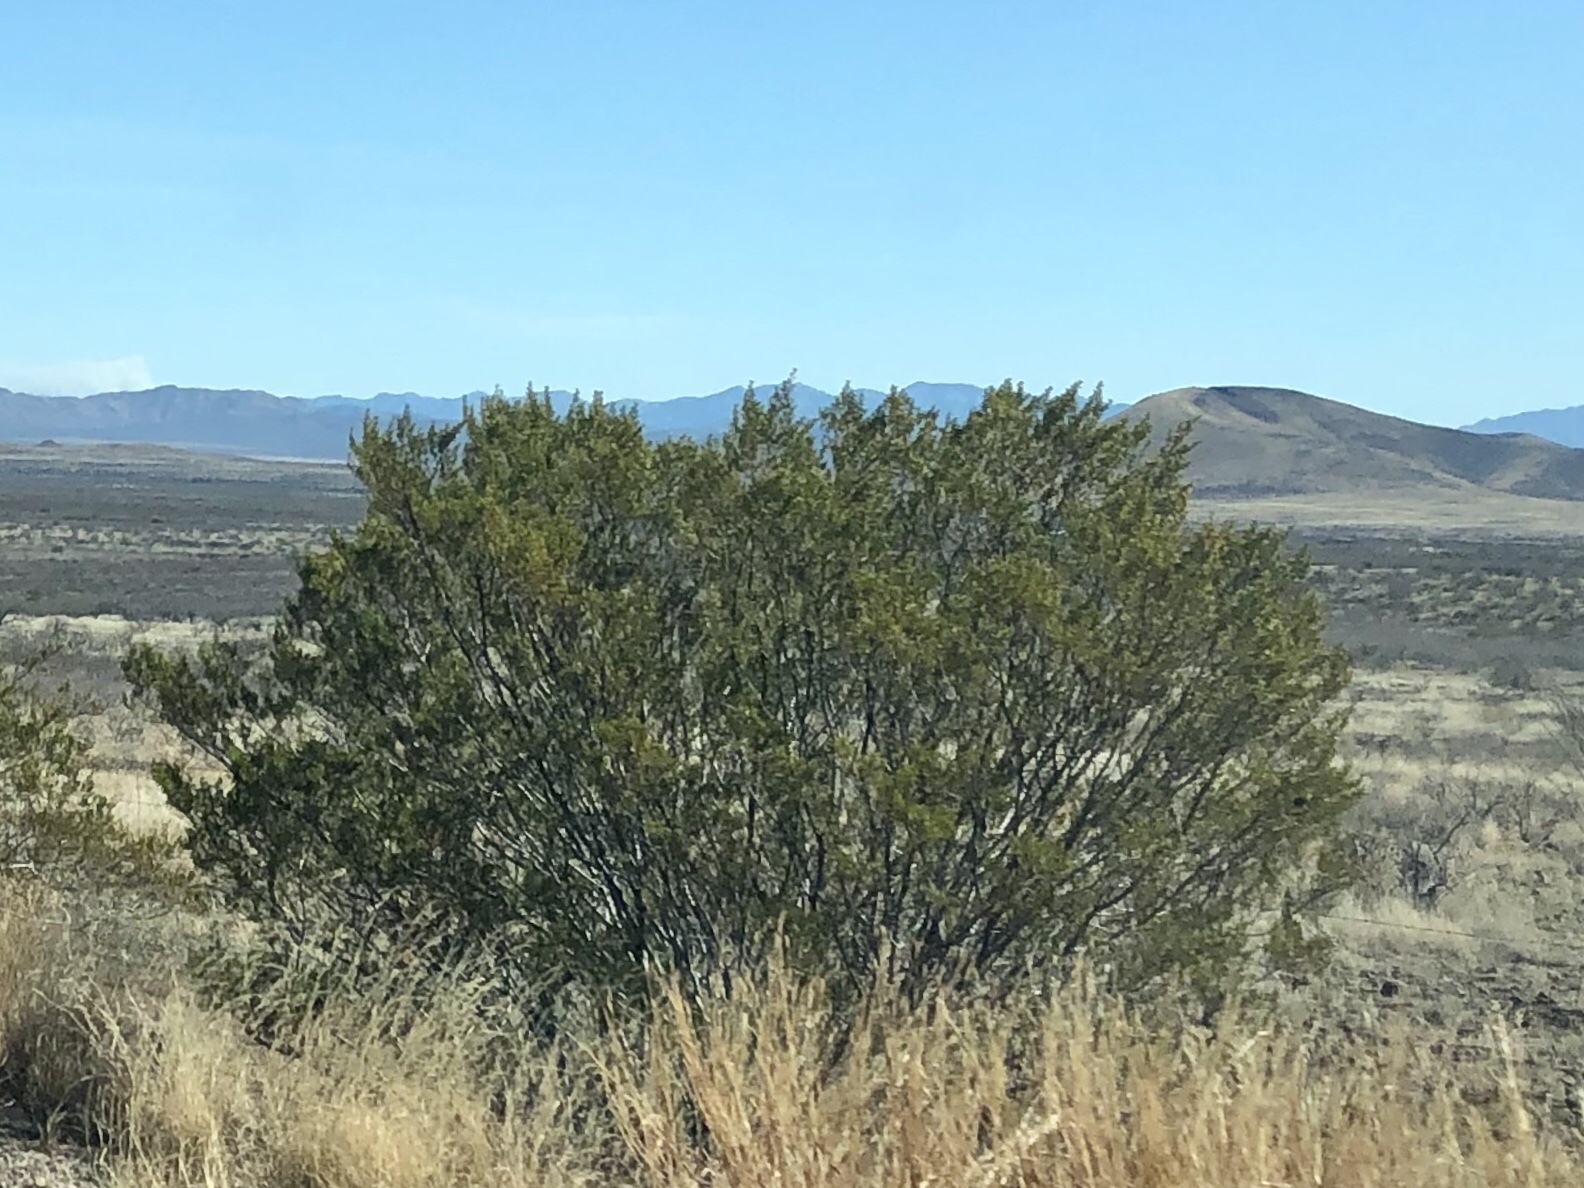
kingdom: Plantae
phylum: Tracheophyta
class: Magnoliopsida
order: Zygophyllales
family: Zygophyllaceae
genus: Larrea
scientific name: Larrea tridentata
